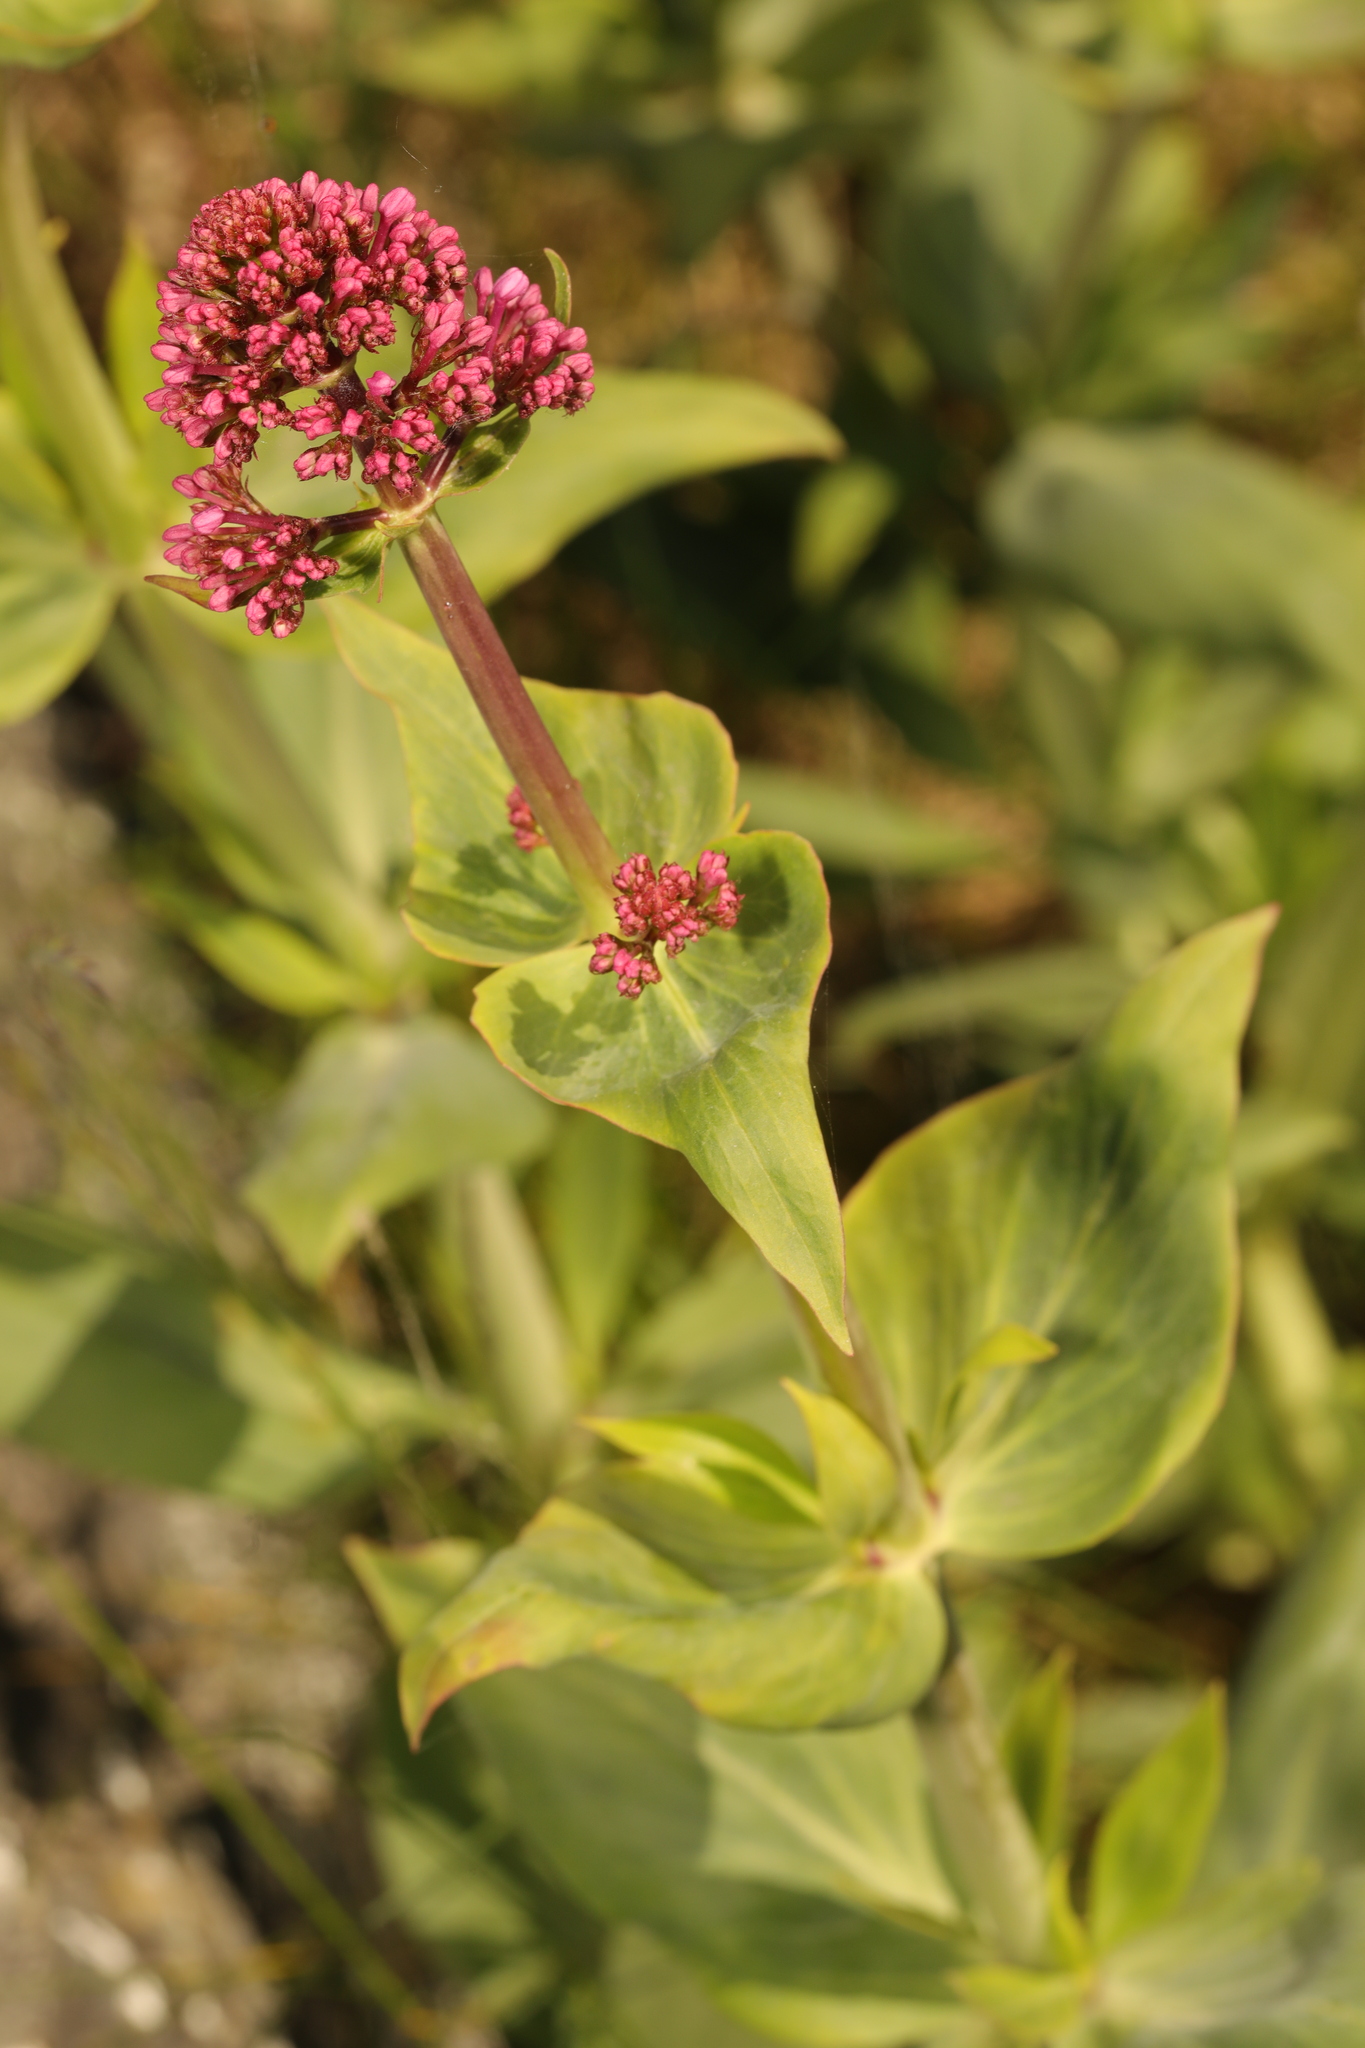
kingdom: Plantae
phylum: Tracheophyta
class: Magnoliopsida
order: Dipsacales
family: Caprifoliaceae
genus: Centranthus
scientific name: Centranthus ruber
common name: Red valerian
